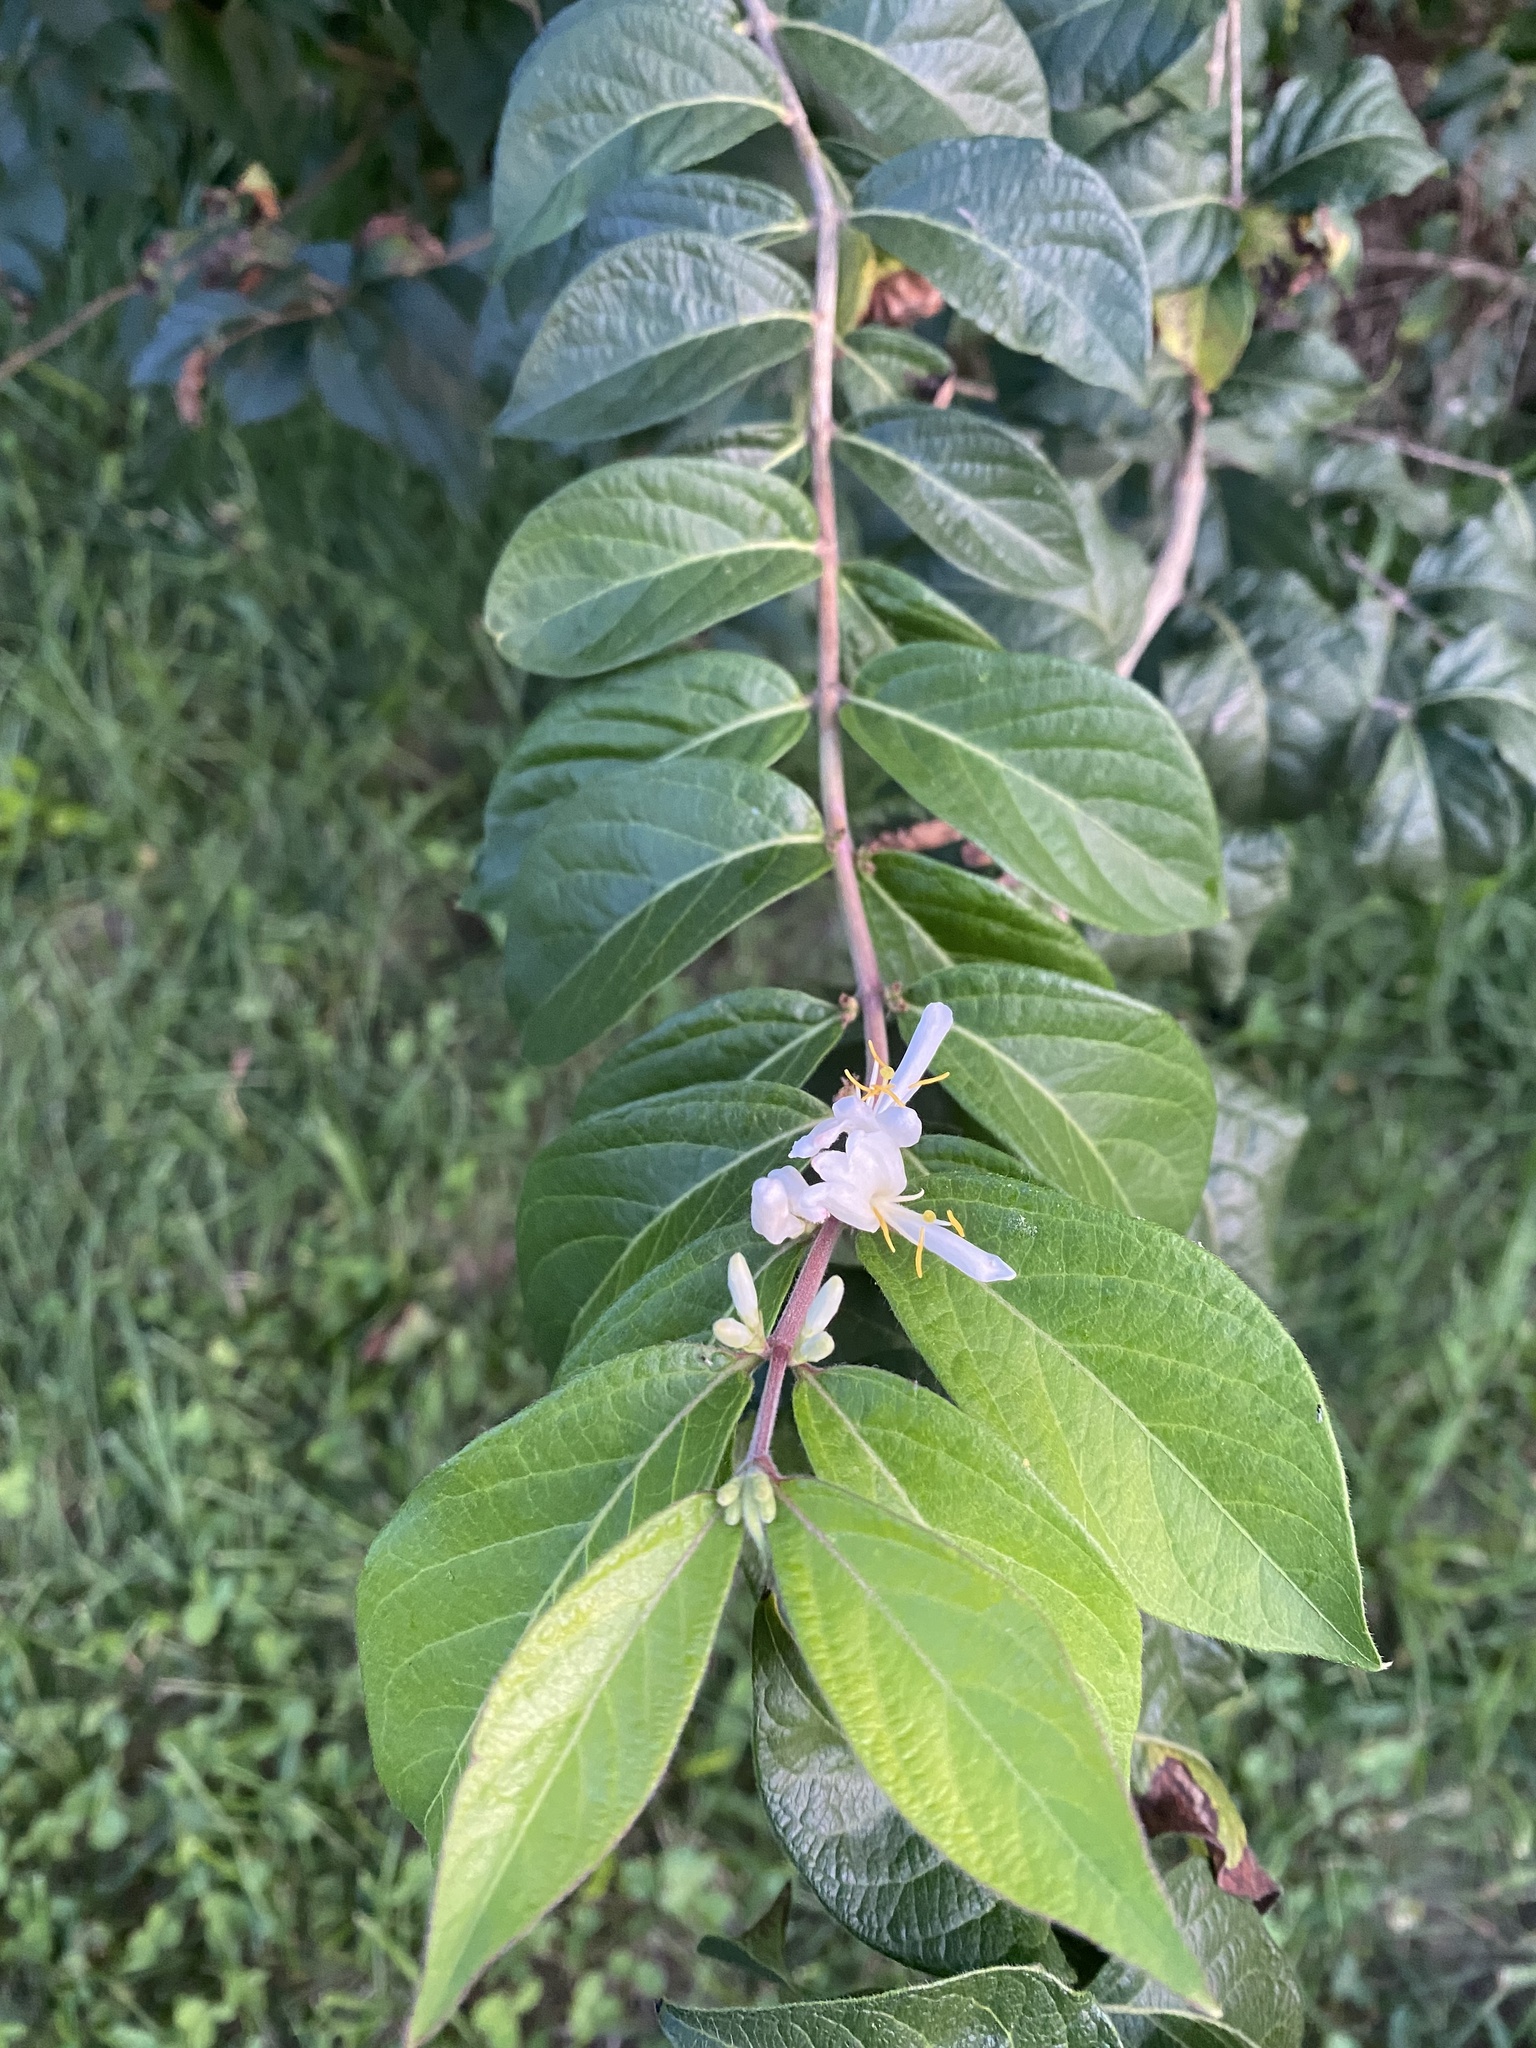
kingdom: Plantae
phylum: Tracheophyta
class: Magnoliopsida
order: Dipsacales
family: Caprifoliaceae
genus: Lonicera
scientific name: Lonicera maackii
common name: Amur honeysuckle
